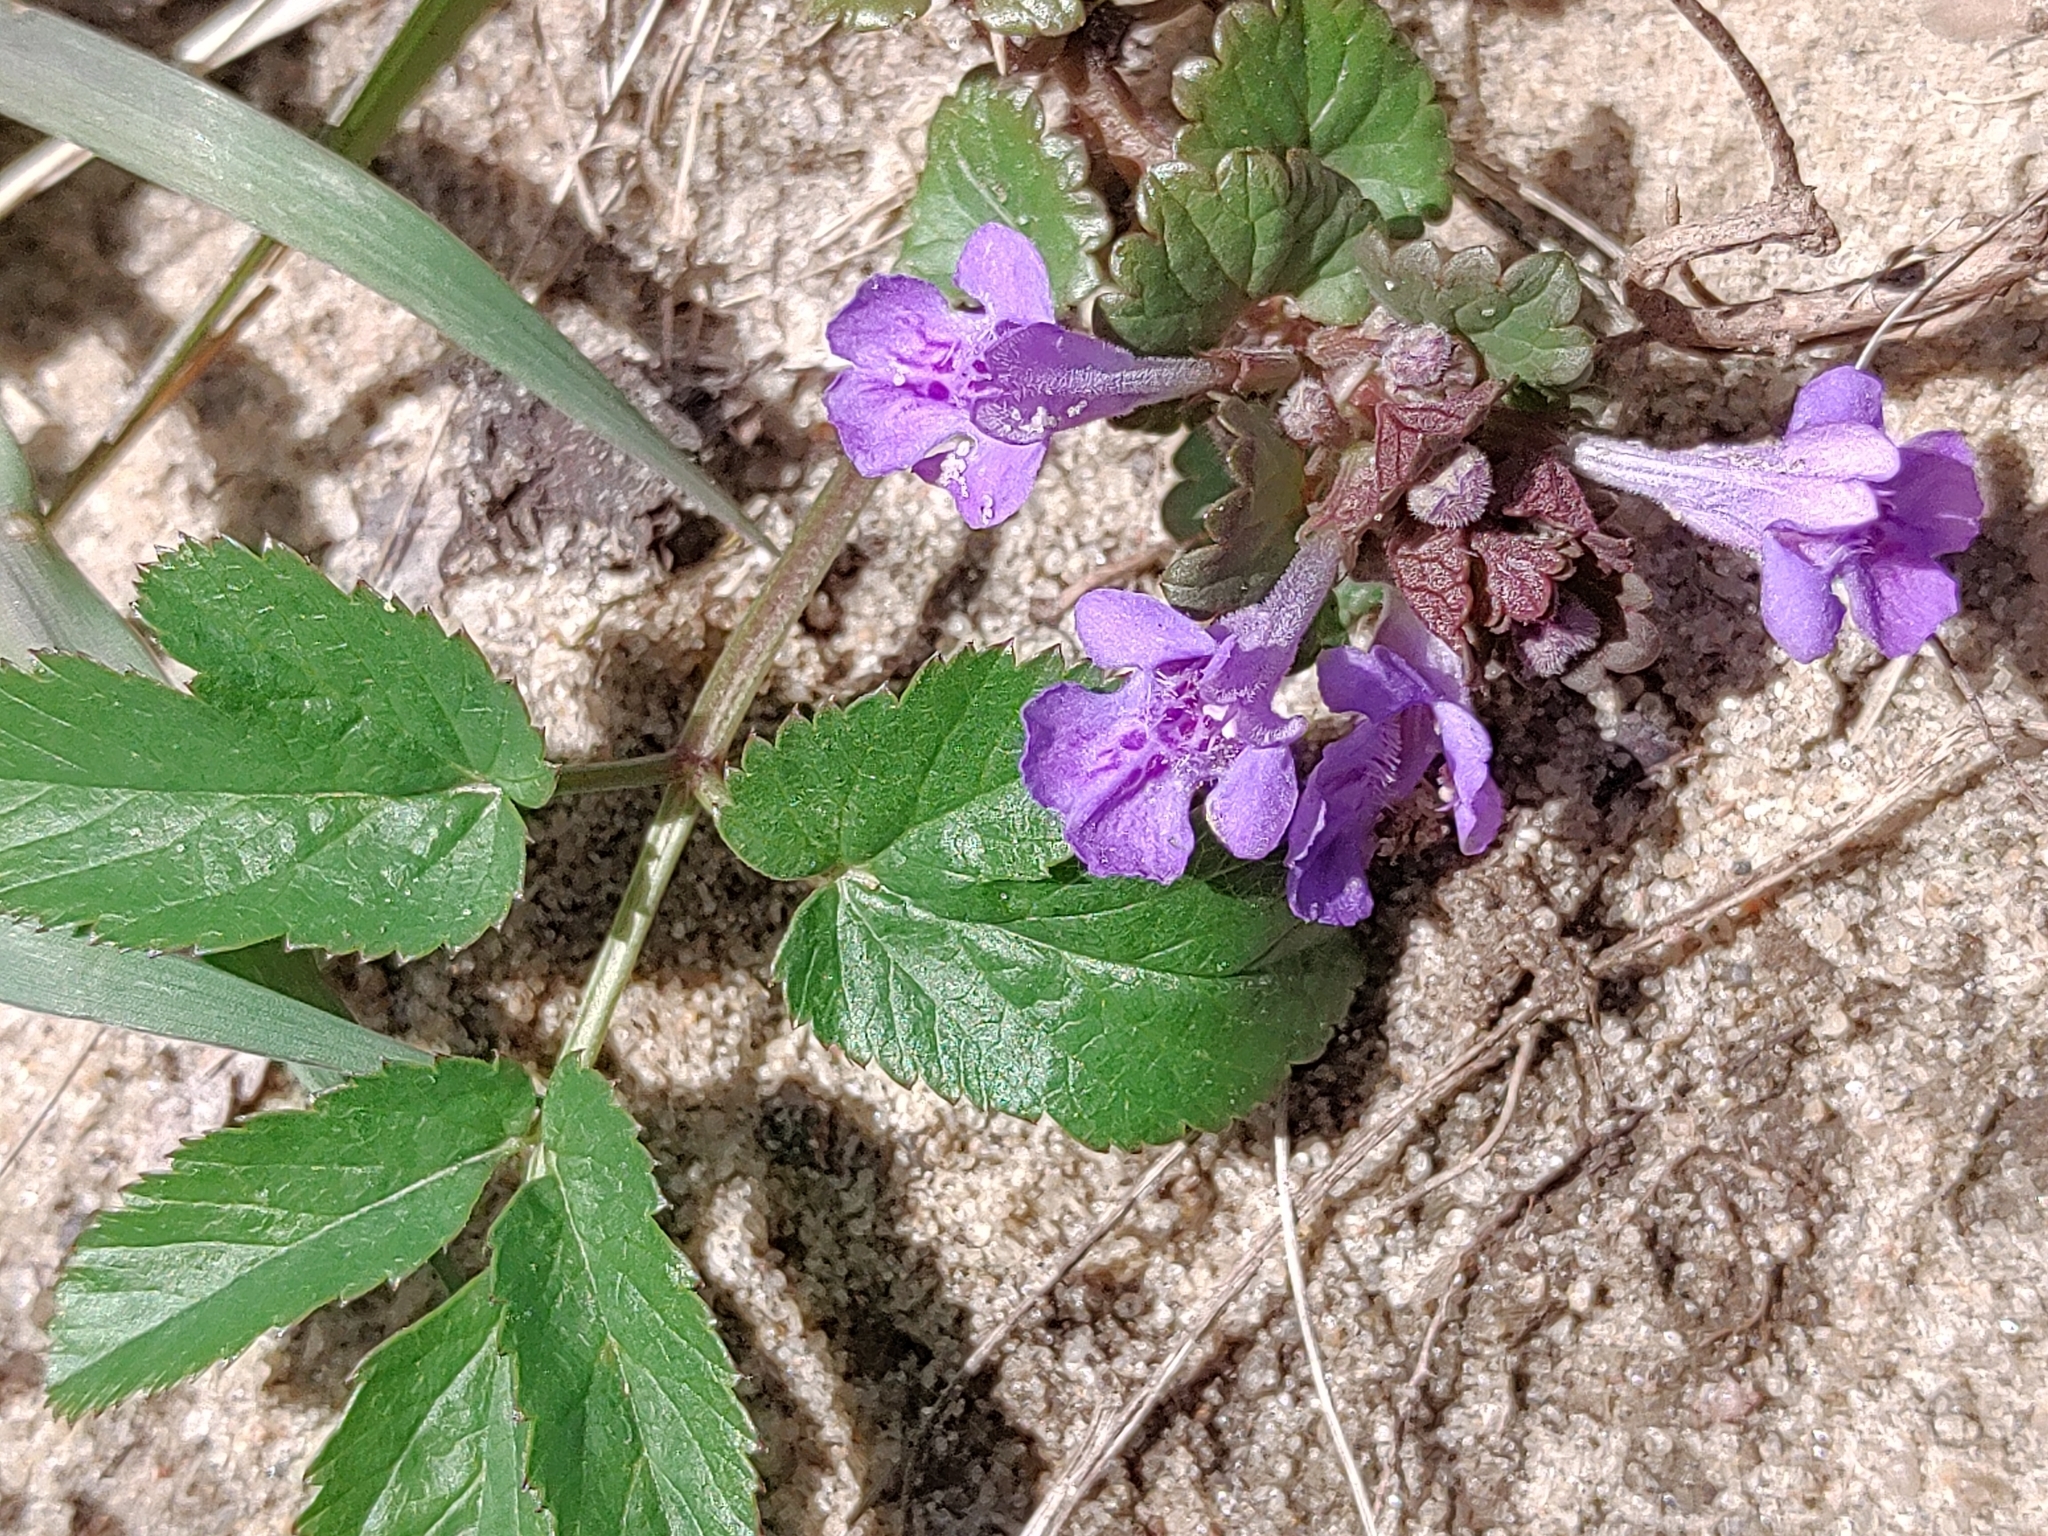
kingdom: Plantae
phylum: Tracheophyta
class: Magnoliopsida
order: Lamiales
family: Lamiaceae
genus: Glechoma
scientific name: Glechoma hederacea
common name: Ground ivy
